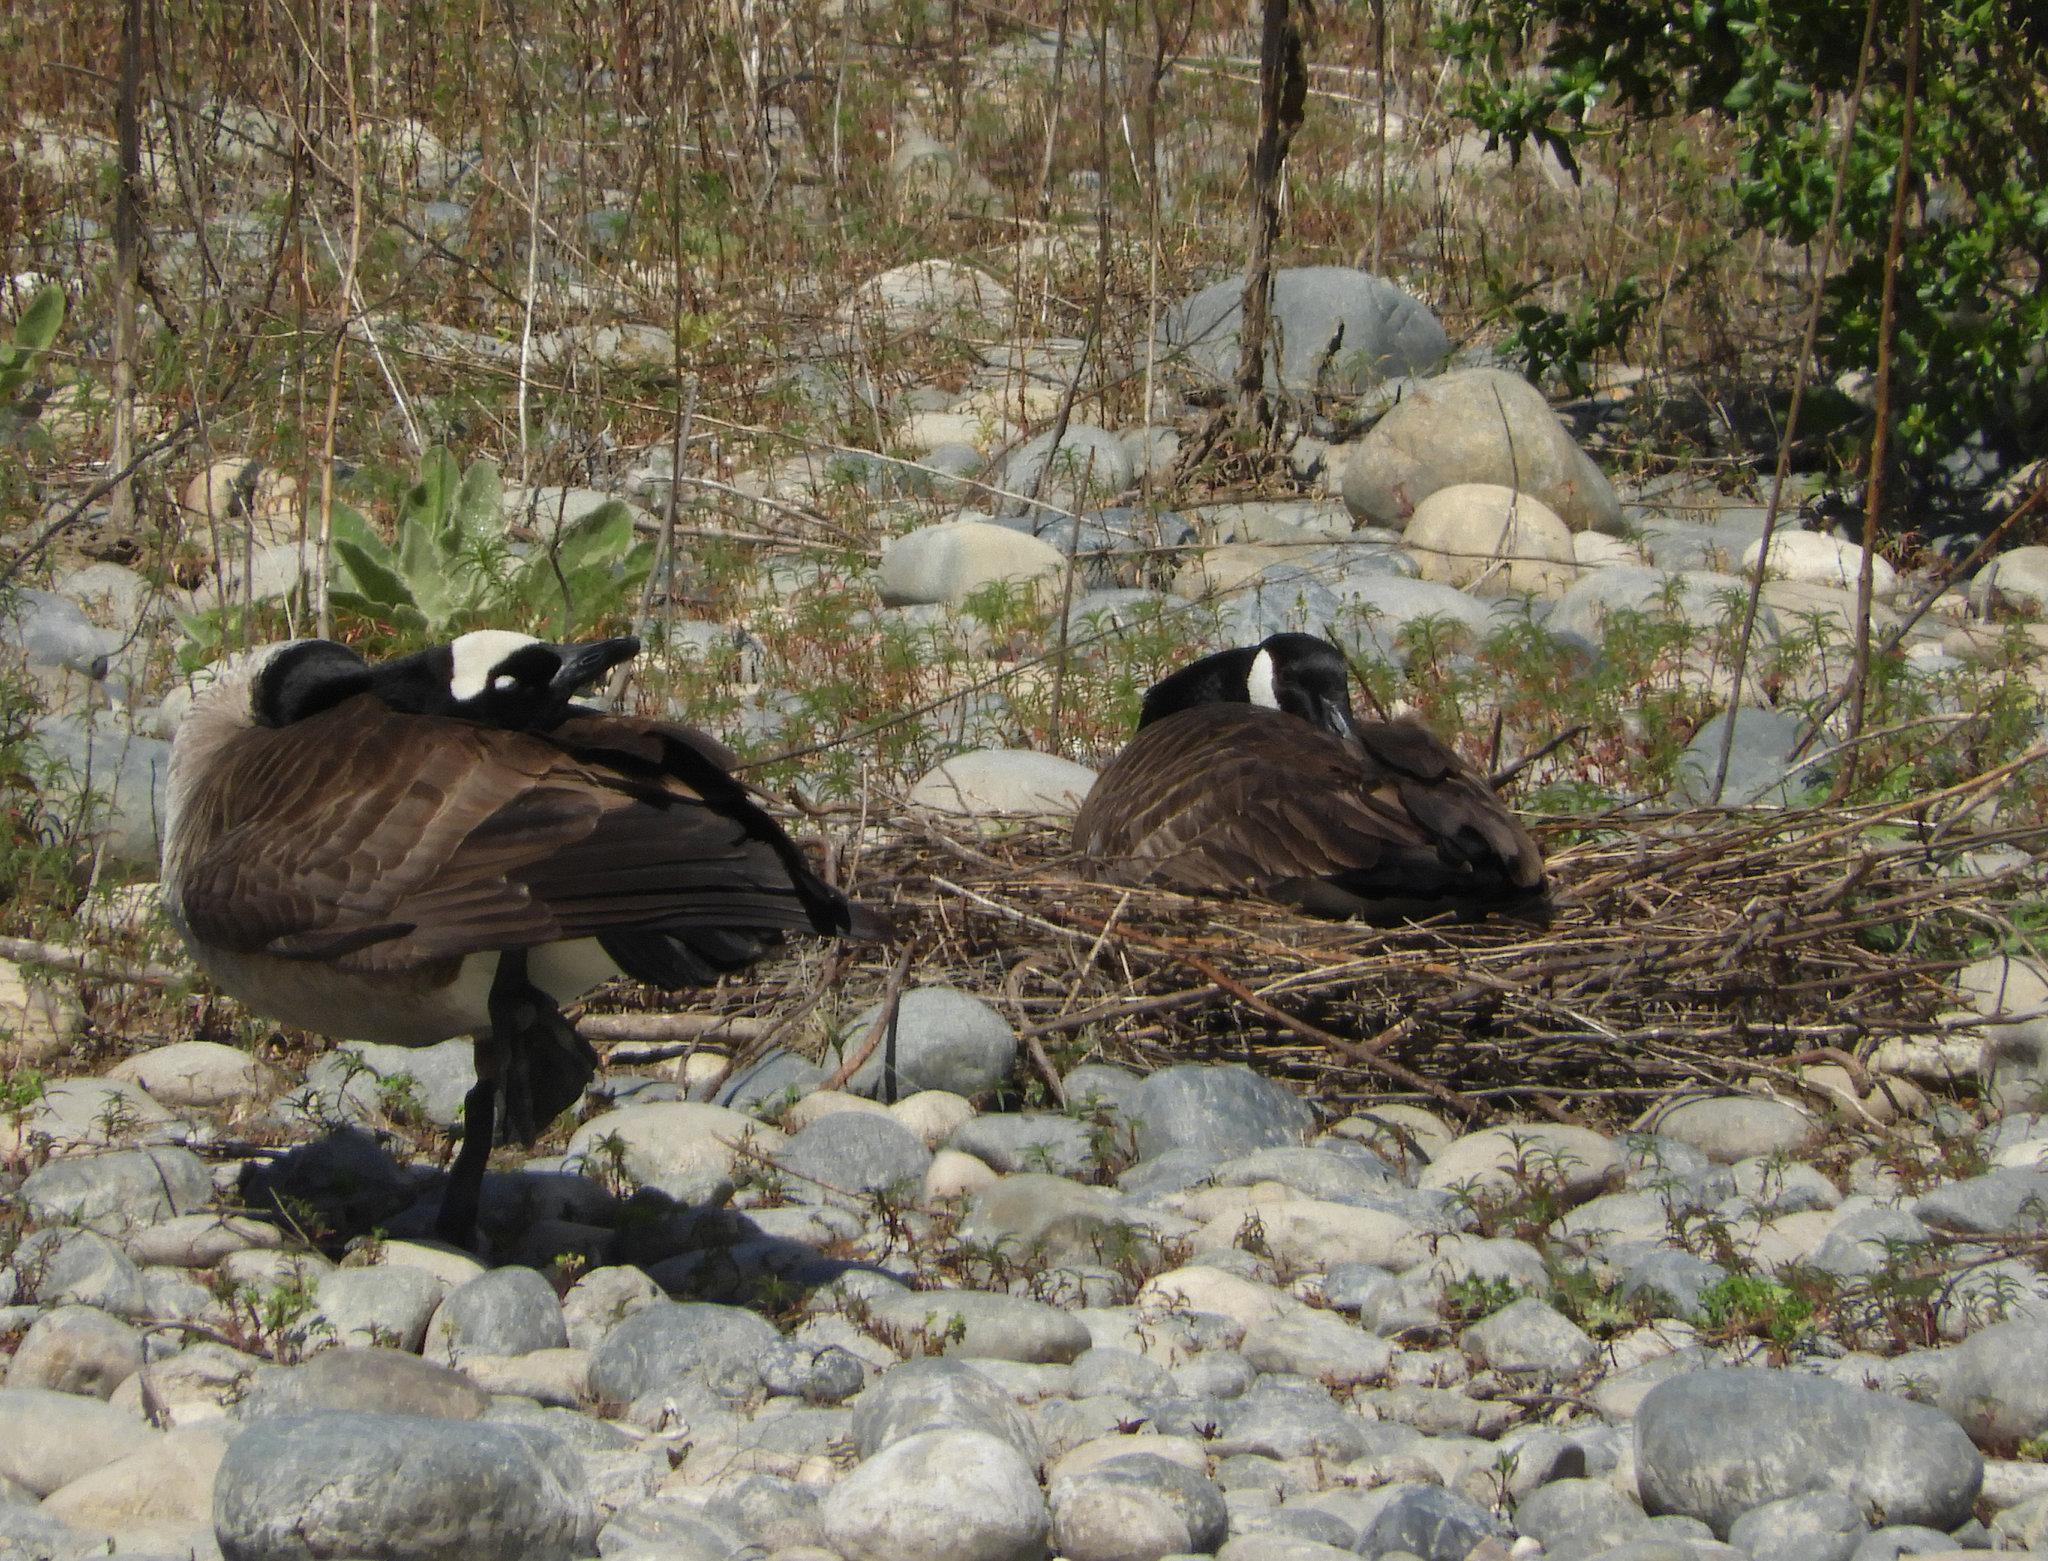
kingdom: Animalia
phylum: Chordata
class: Aves
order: Anseriformes
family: Anatidae
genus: Branta
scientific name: Branta canadensis
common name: Canada goose
